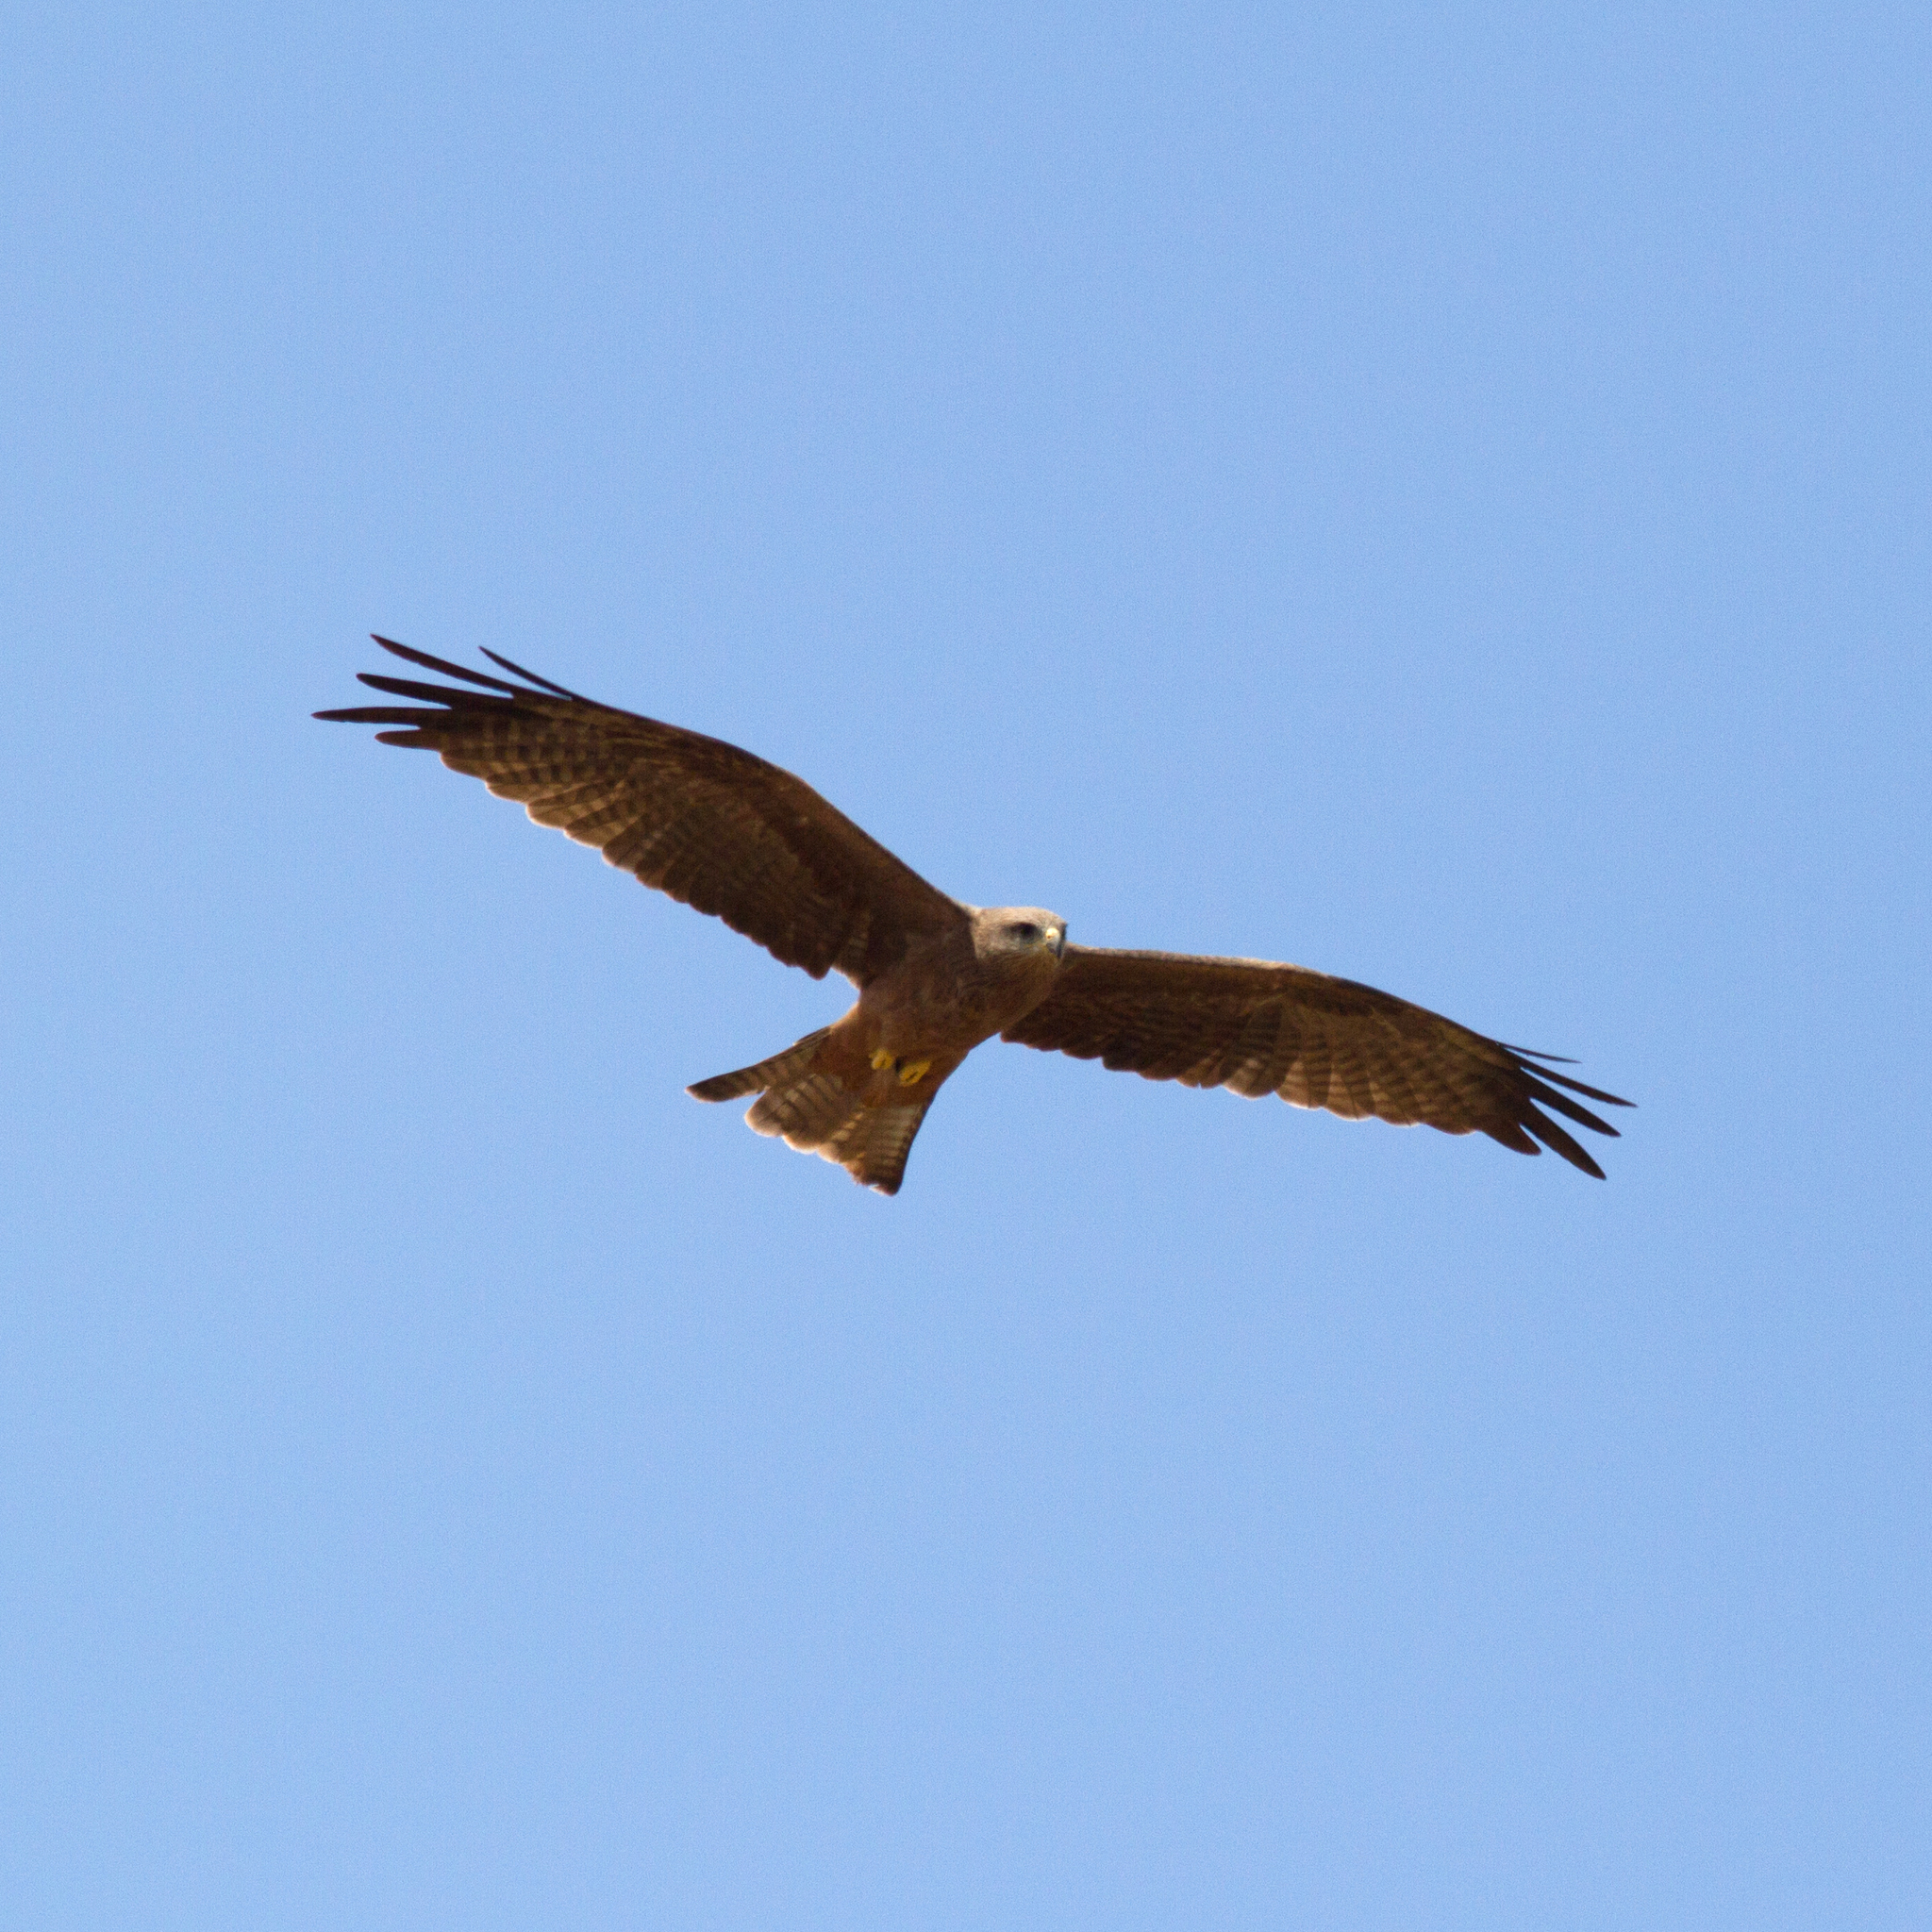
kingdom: Animalia
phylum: Chordata
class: Aves
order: Accipitriformes
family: Accipitridae
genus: Milvus
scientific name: Milvus migrans
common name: Black kite
